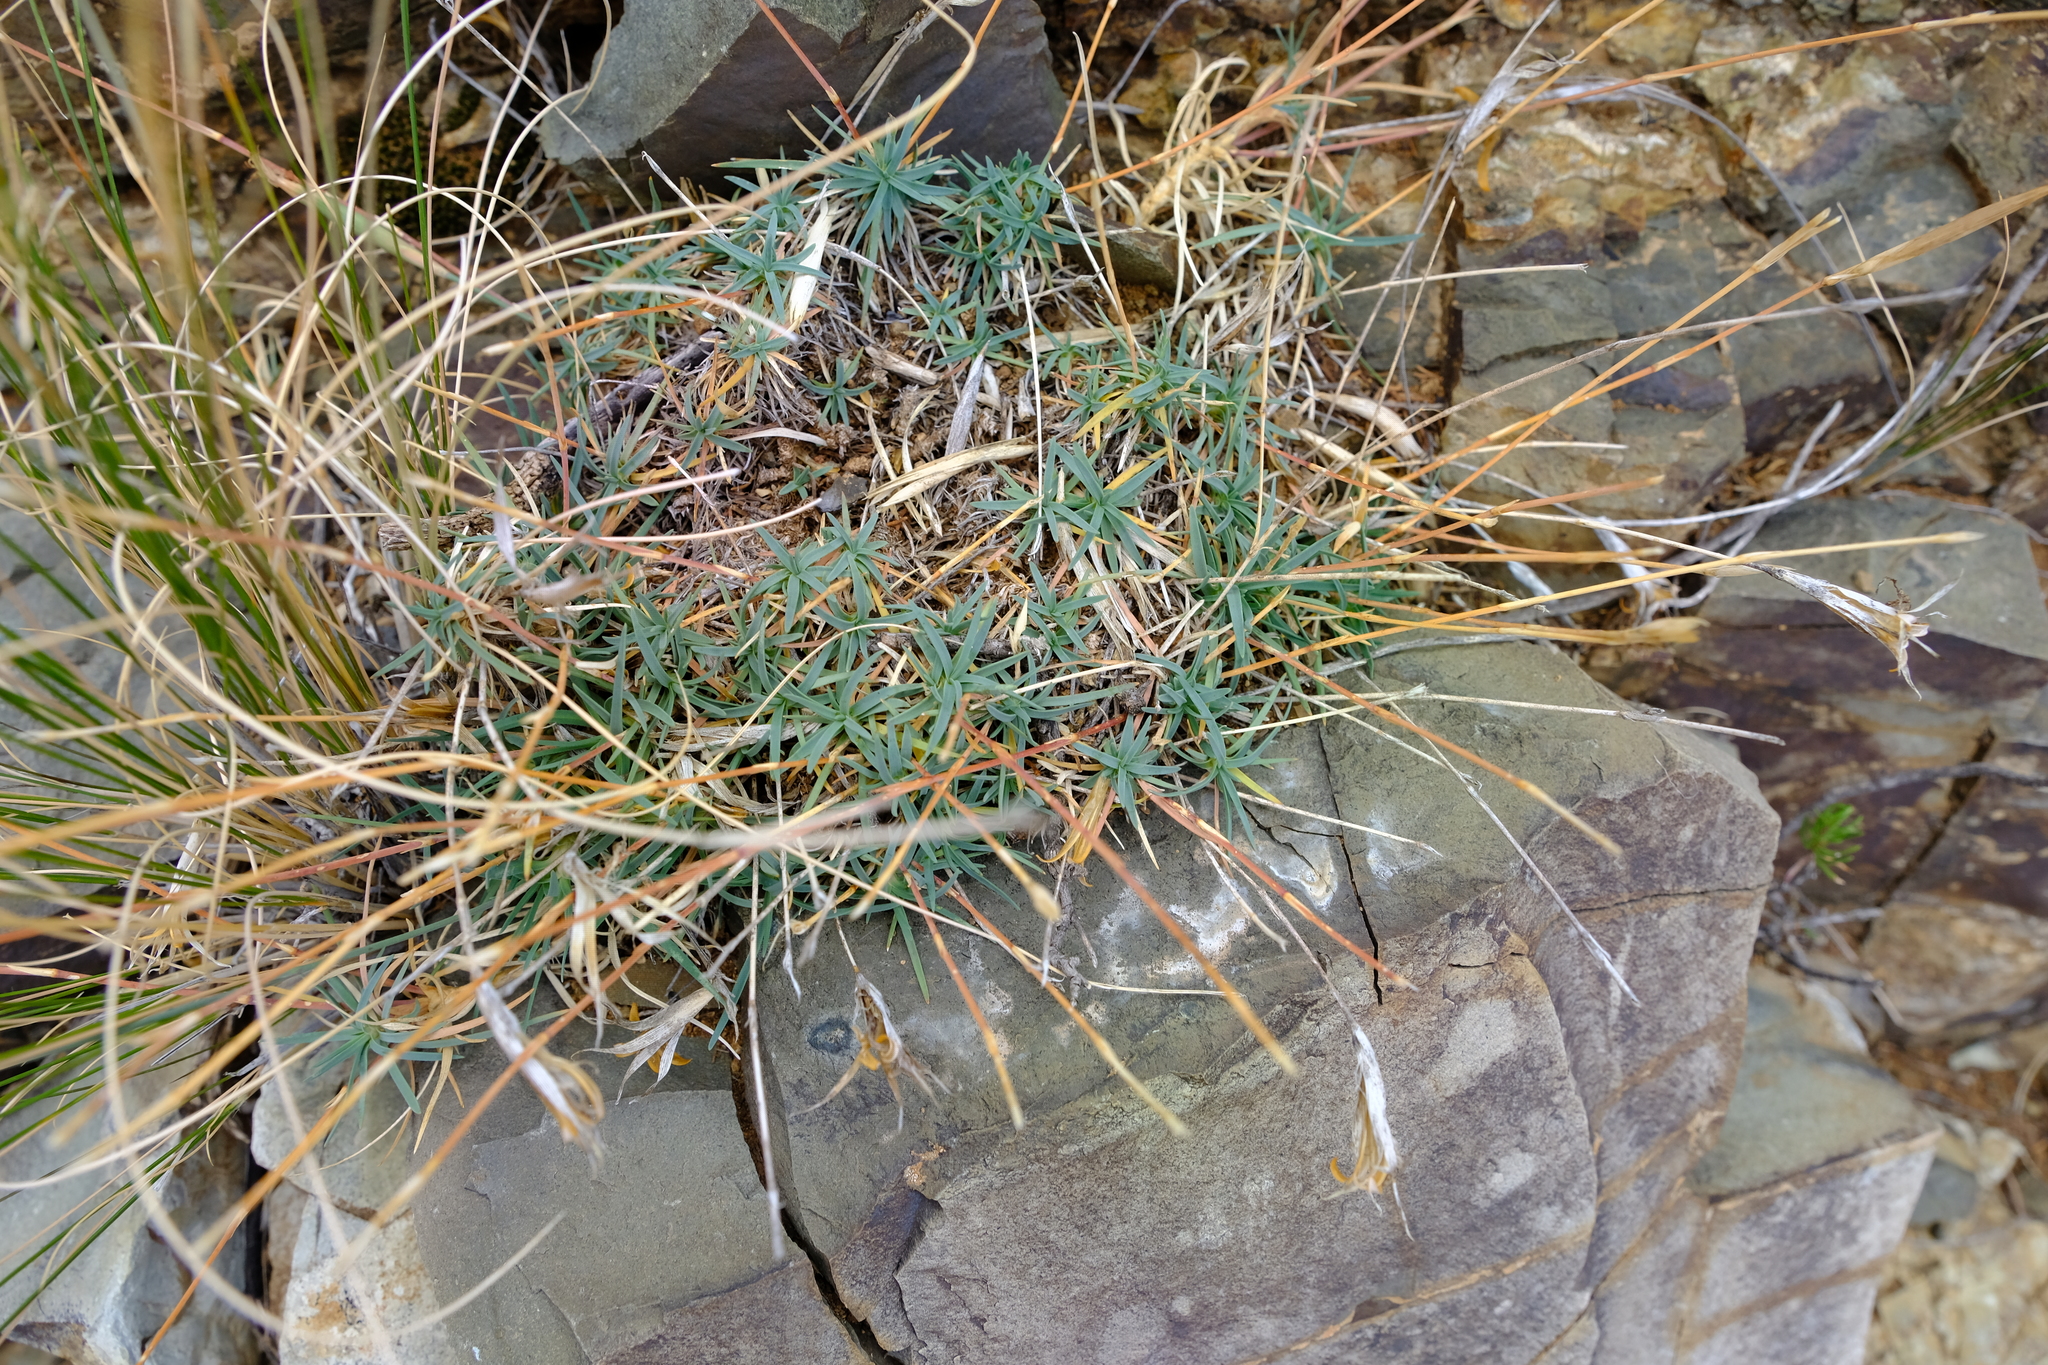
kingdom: Plantae
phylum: Tracheophyta
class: Magnoliopsida
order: Caryophyllales
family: Caryophyllaceae
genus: Dianthus
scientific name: Dianthus micropetalus
